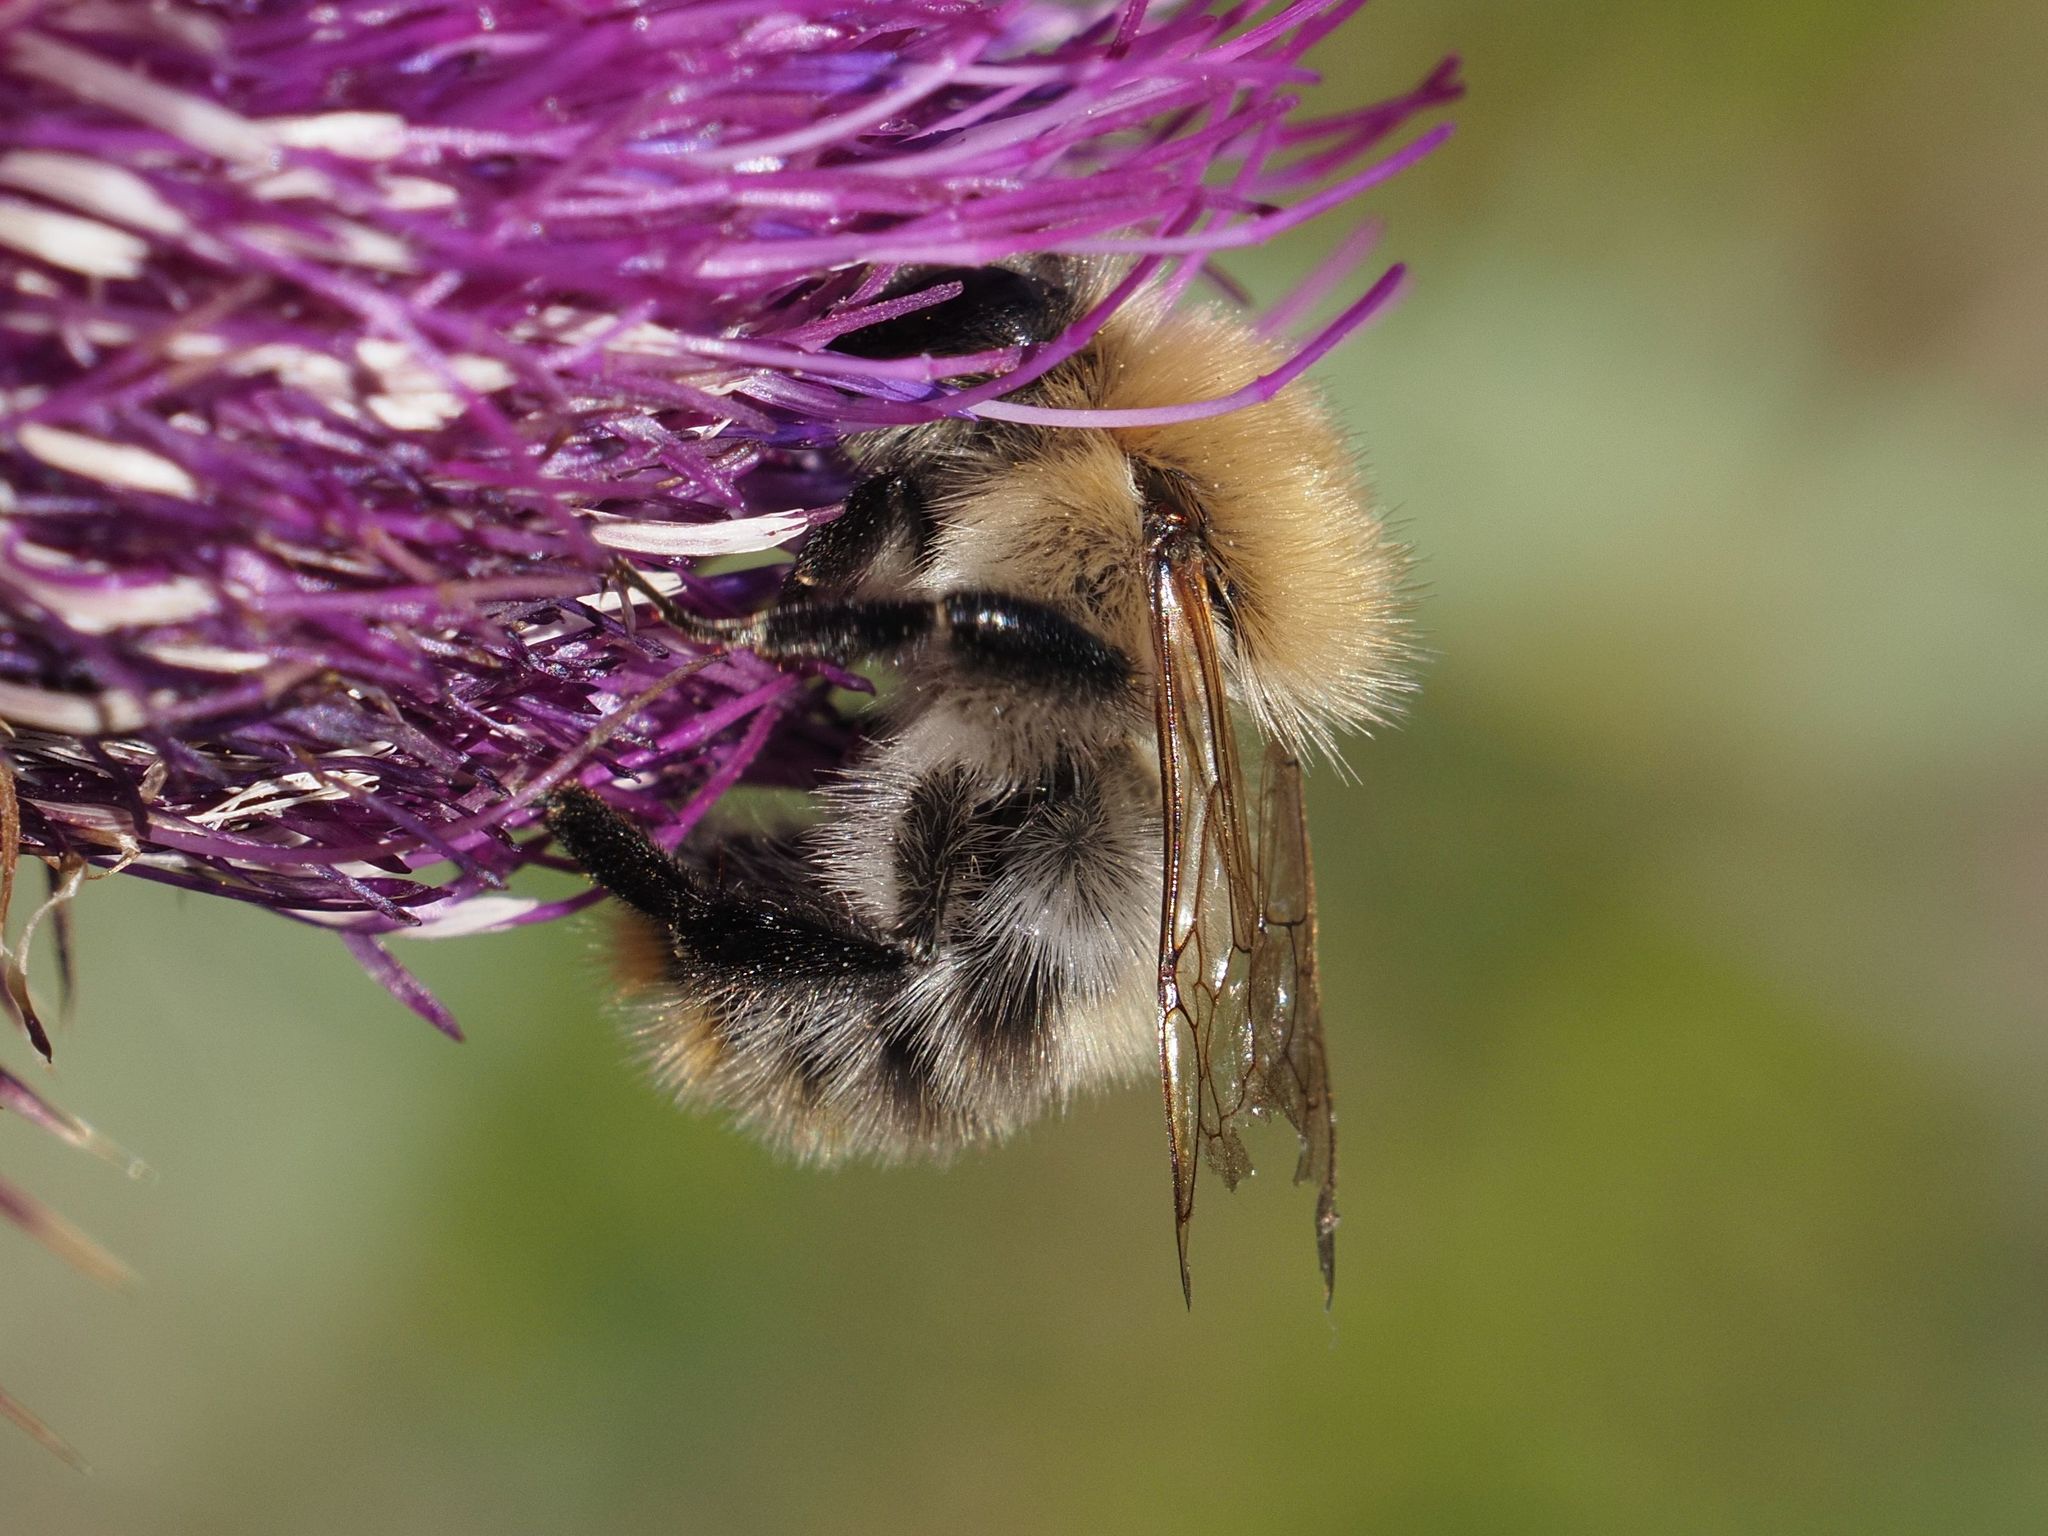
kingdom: Animalia
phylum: Arthropoda
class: Insecta
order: Hymenoptera
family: Apidae
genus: Bombus
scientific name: Bombus pascuorum
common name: Common carder bee
